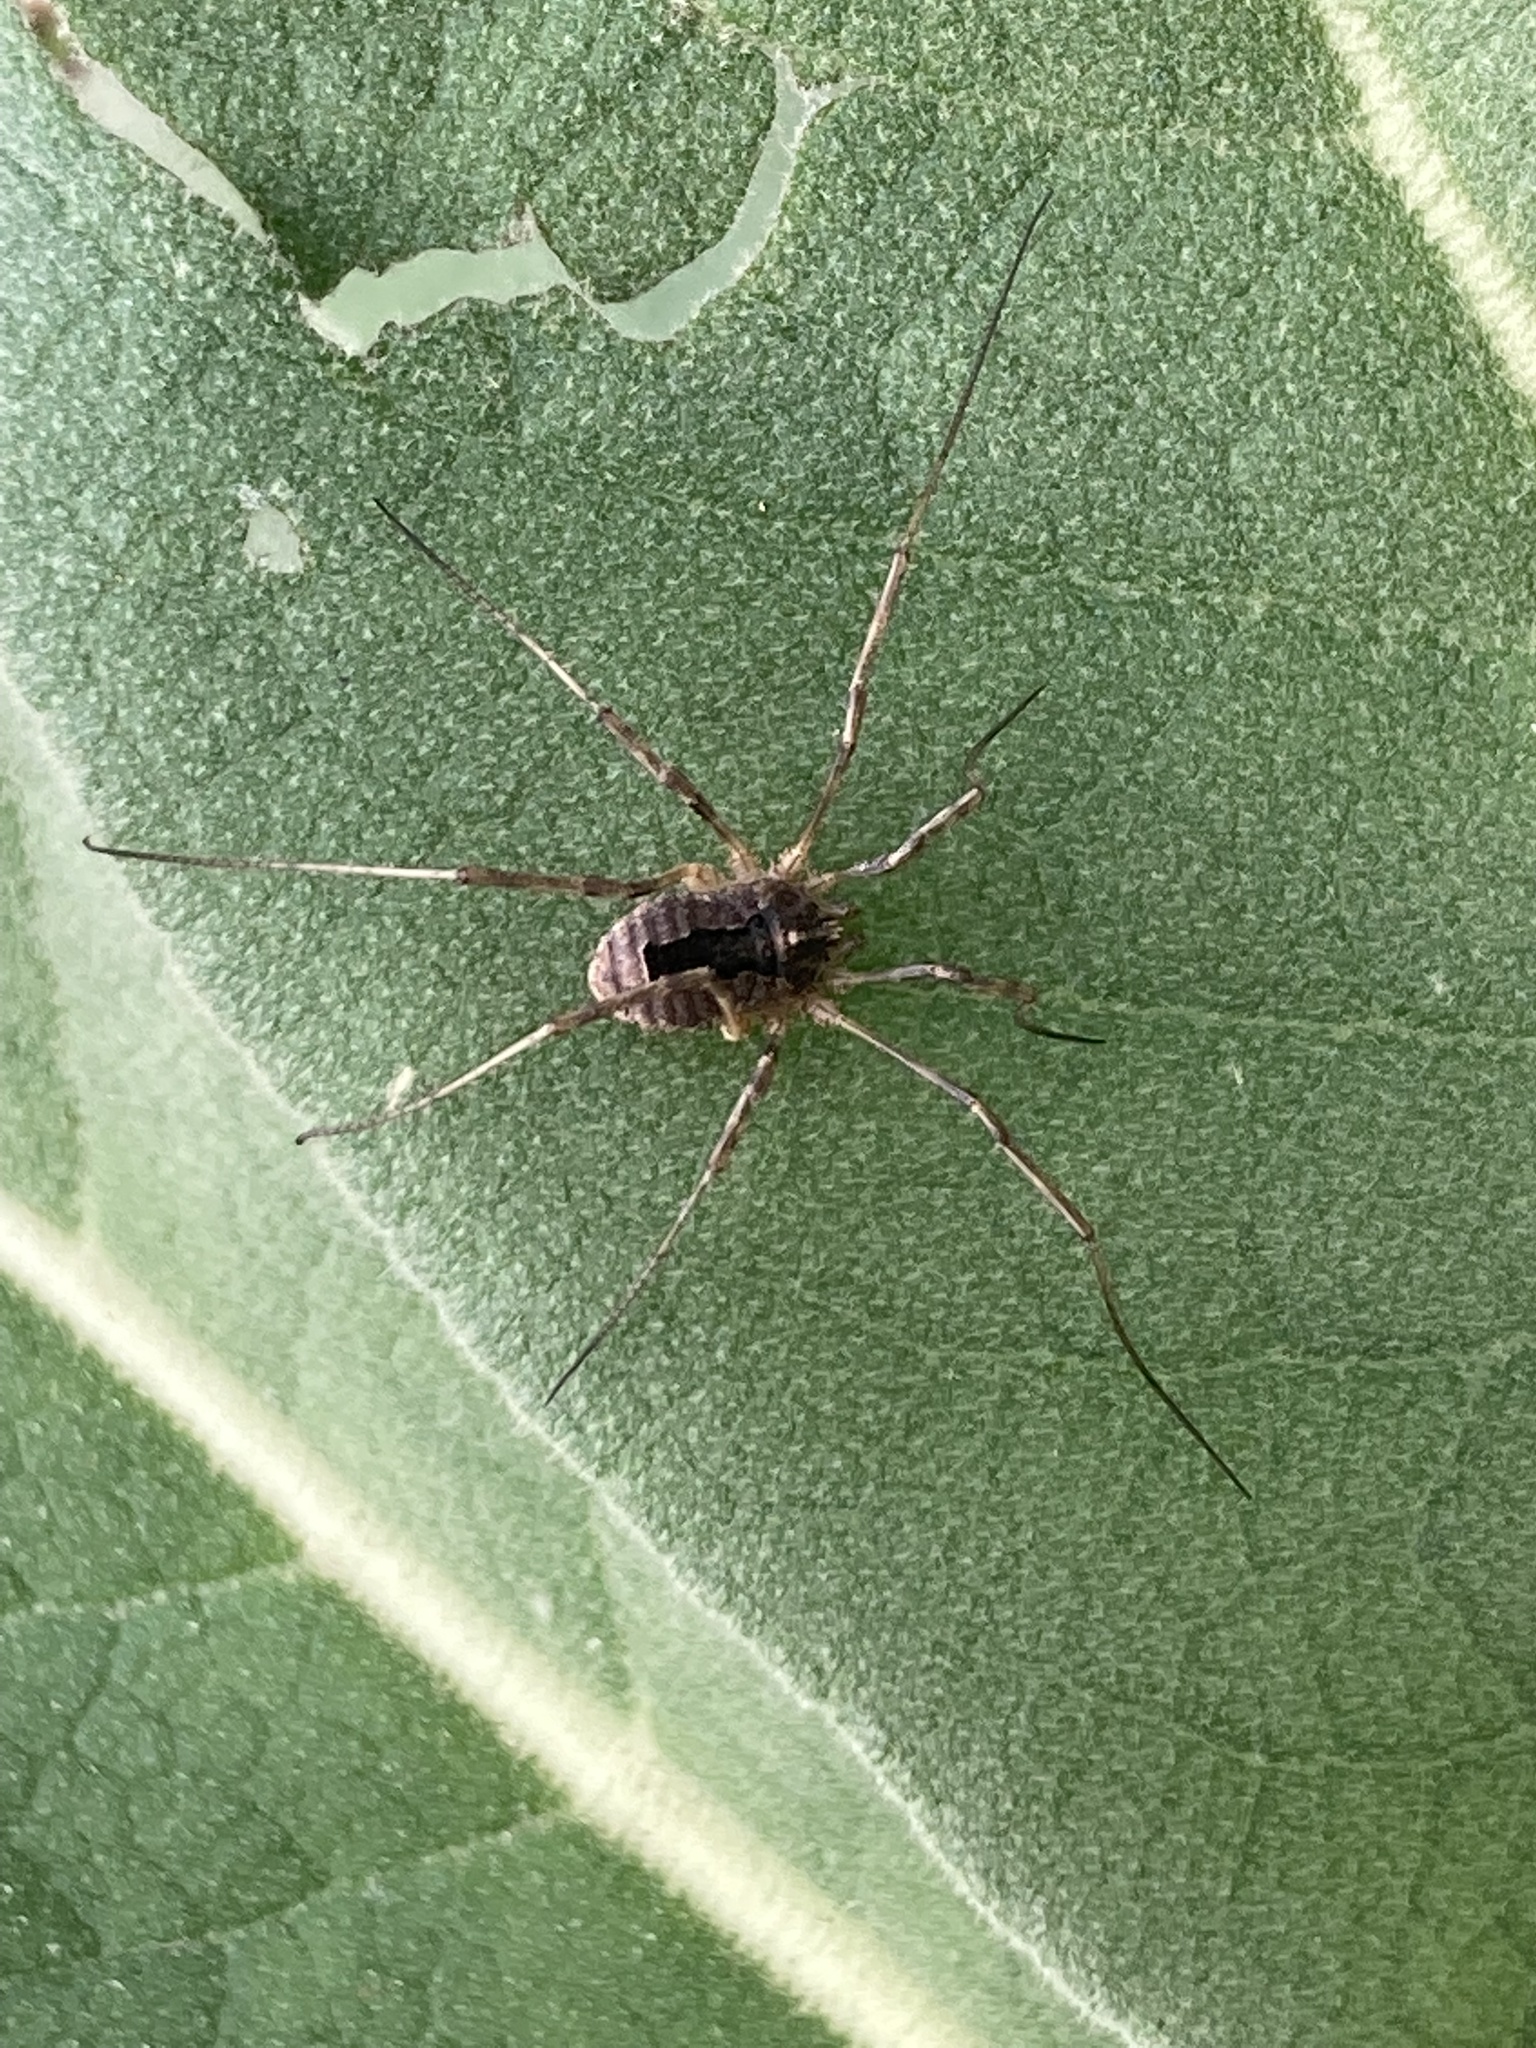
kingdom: Animalia
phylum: Arthropoda
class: Arachnida
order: Opiliones
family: Phalangiidae
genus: Odiellus
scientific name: Odiellus spinosus
